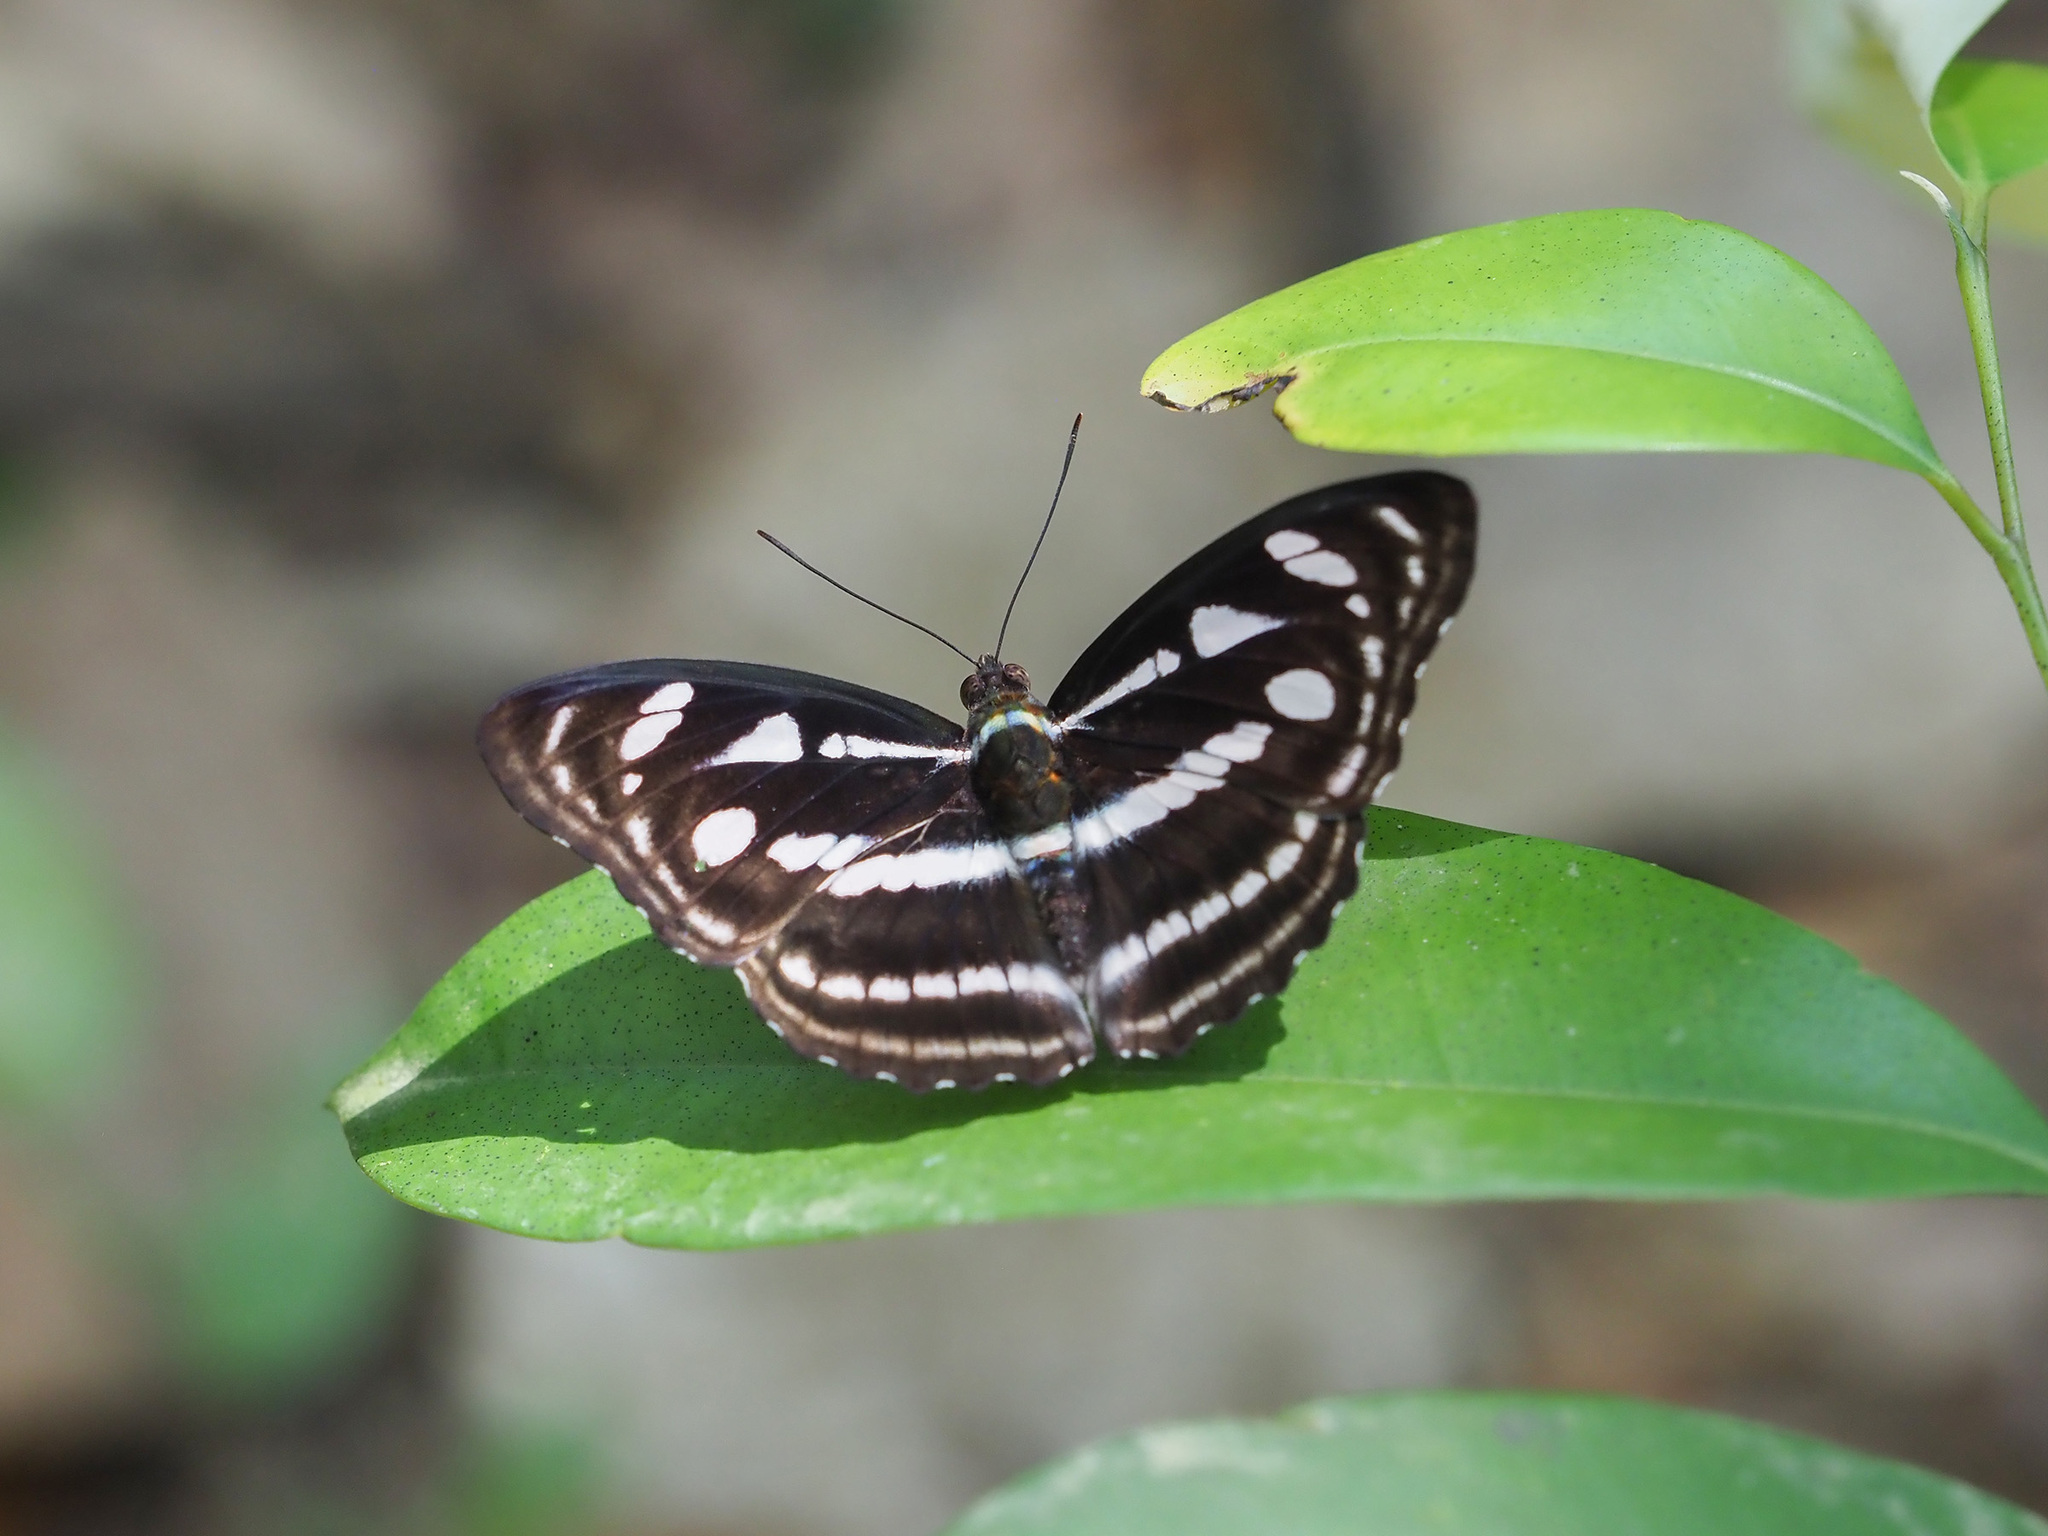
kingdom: Animalia
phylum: Arthropoda
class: Insecta
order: Lepidoptera
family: Nymphalidae
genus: Parathyma
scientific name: Parathyma reta
